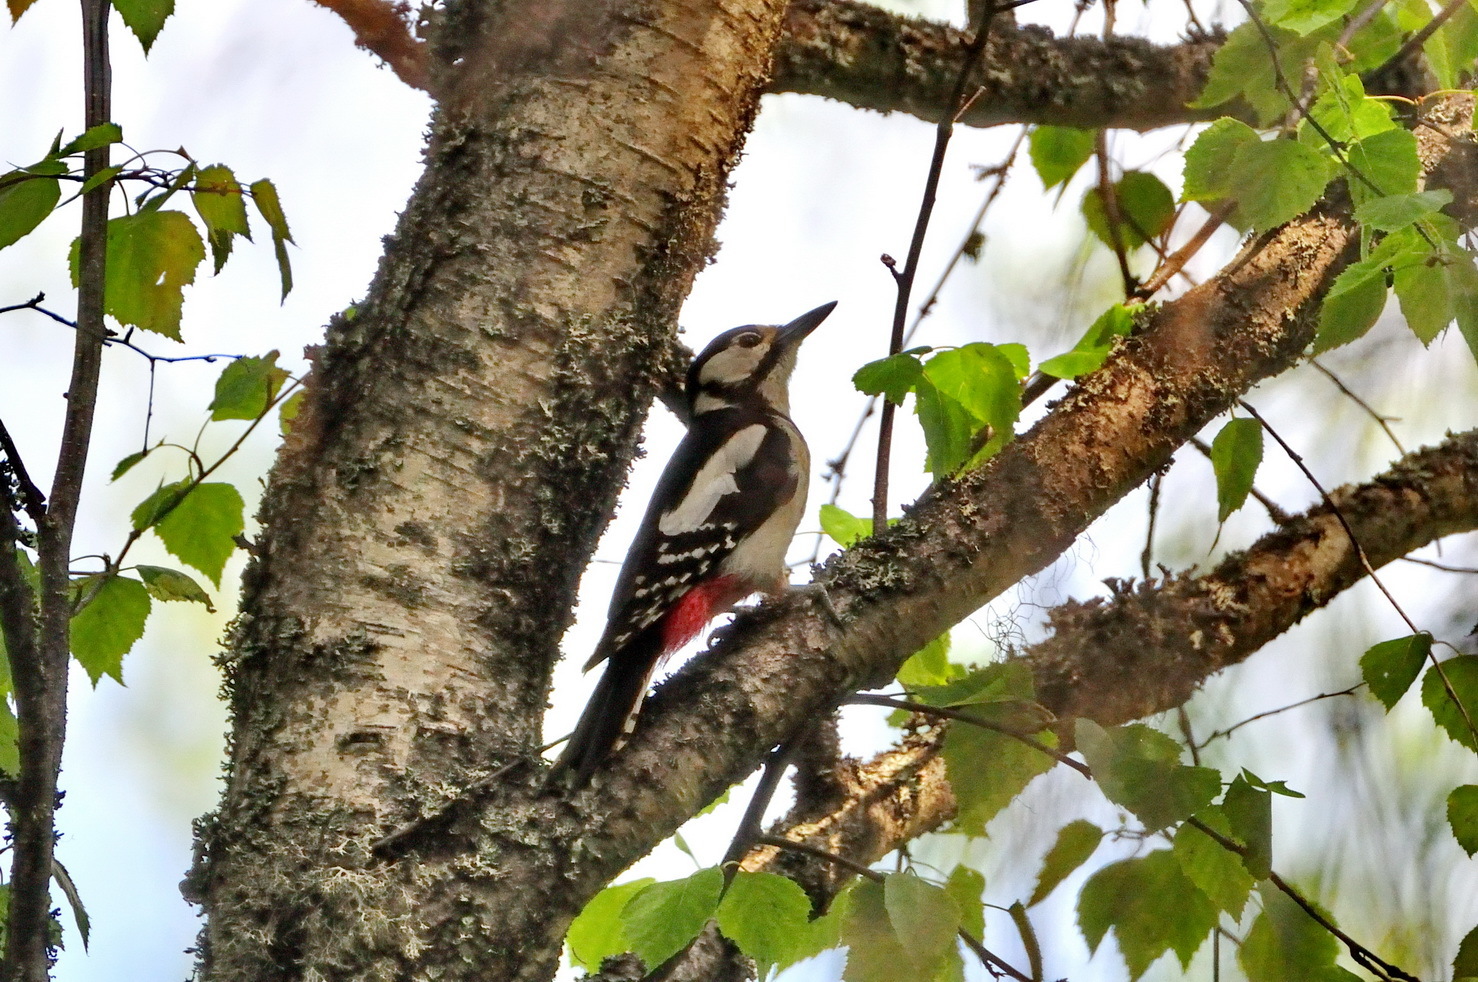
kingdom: Animalia
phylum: Chordata
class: Aves
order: Piciformes
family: Picidae
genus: Dendrocopos
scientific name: Dendrocopos major
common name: Great spotted woodpecker
